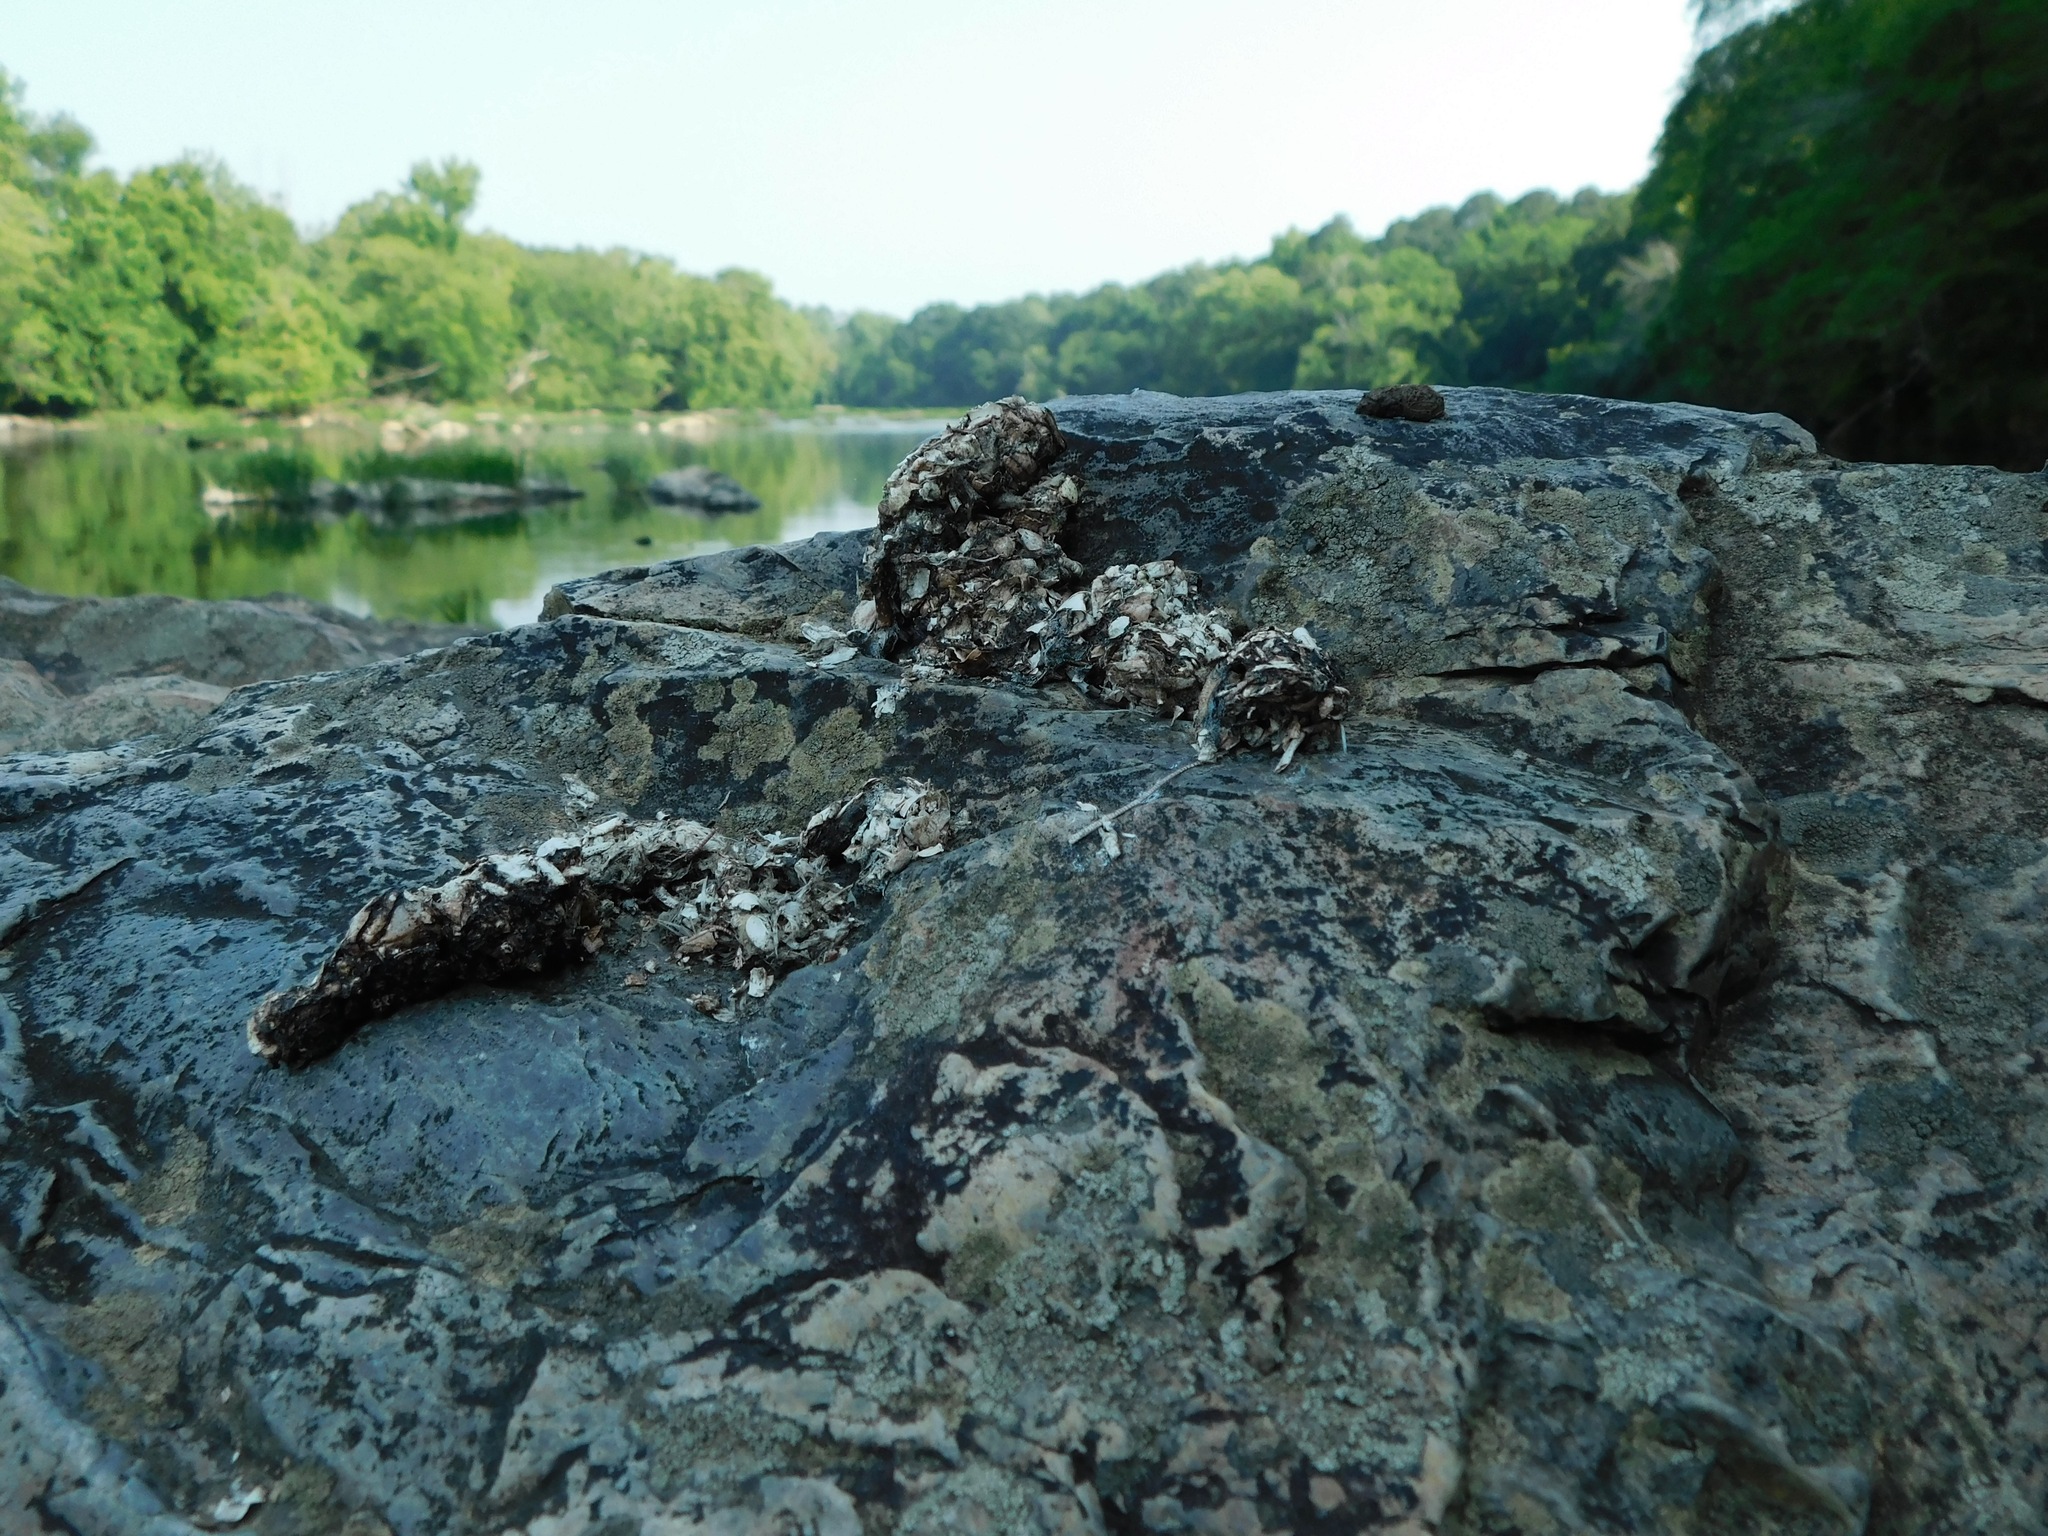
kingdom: Animalia
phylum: Chordata
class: Mammalia
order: Carnivora
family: Mustelidae
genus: Lontra
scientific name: Lontra canadensis
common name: North american river otter
